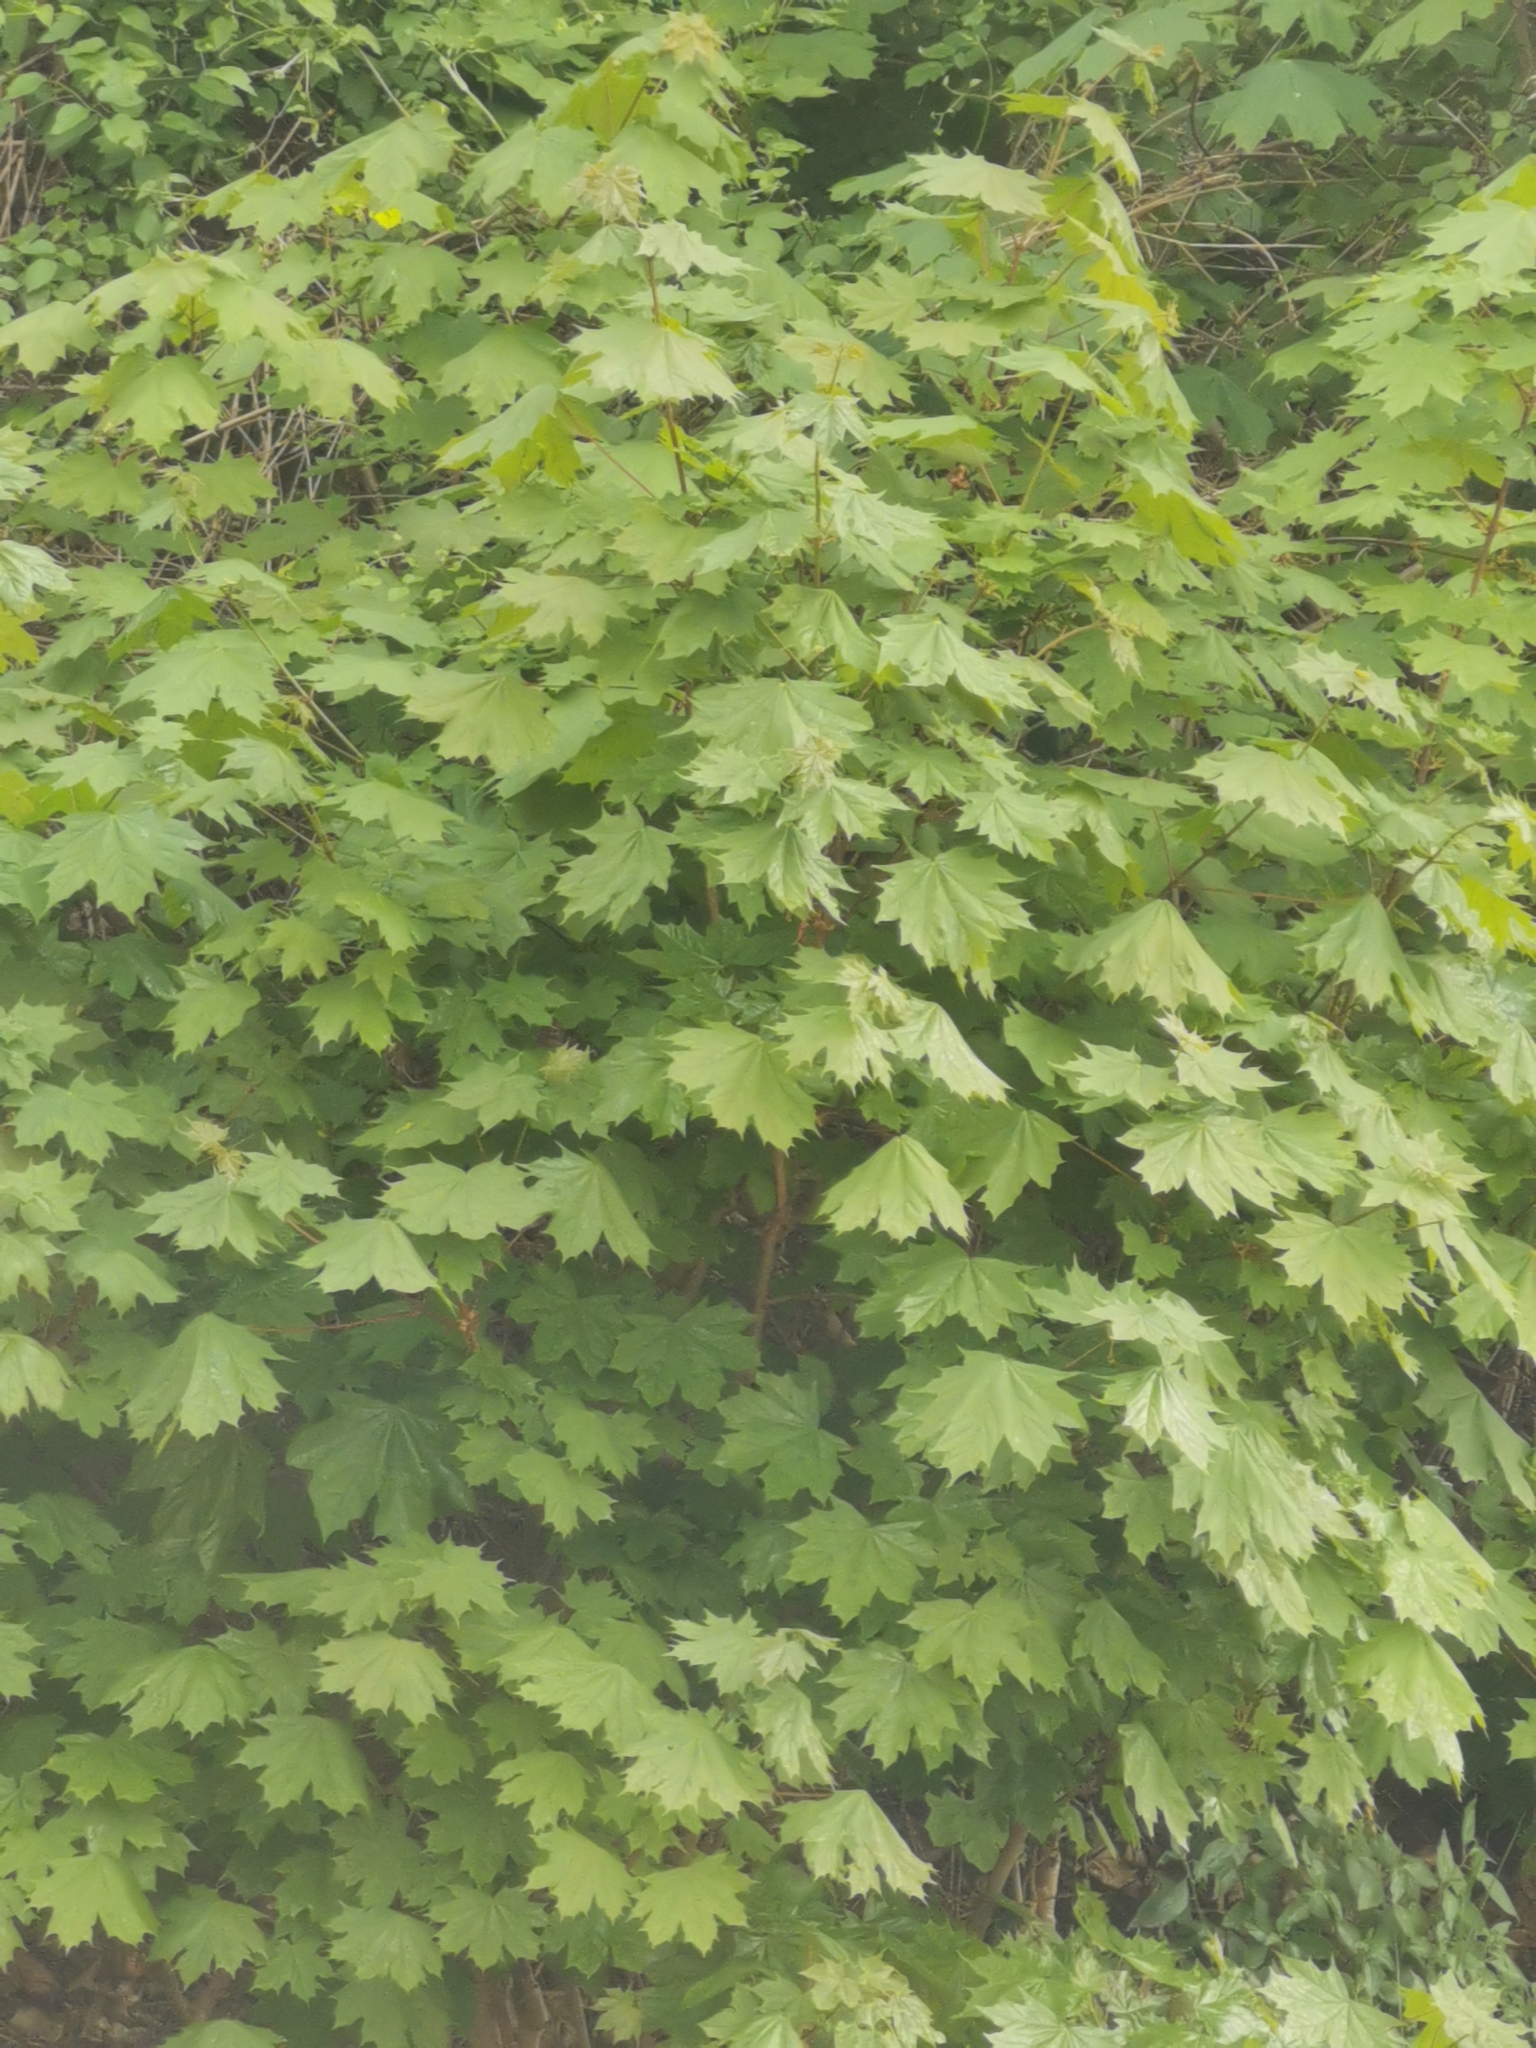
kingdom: Plantae
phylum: Tracheophyta
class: Magnoliopsida
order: Sapindales
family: Sapindaceae
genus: Acer
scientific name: Acer platanoides
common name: Norway maple
